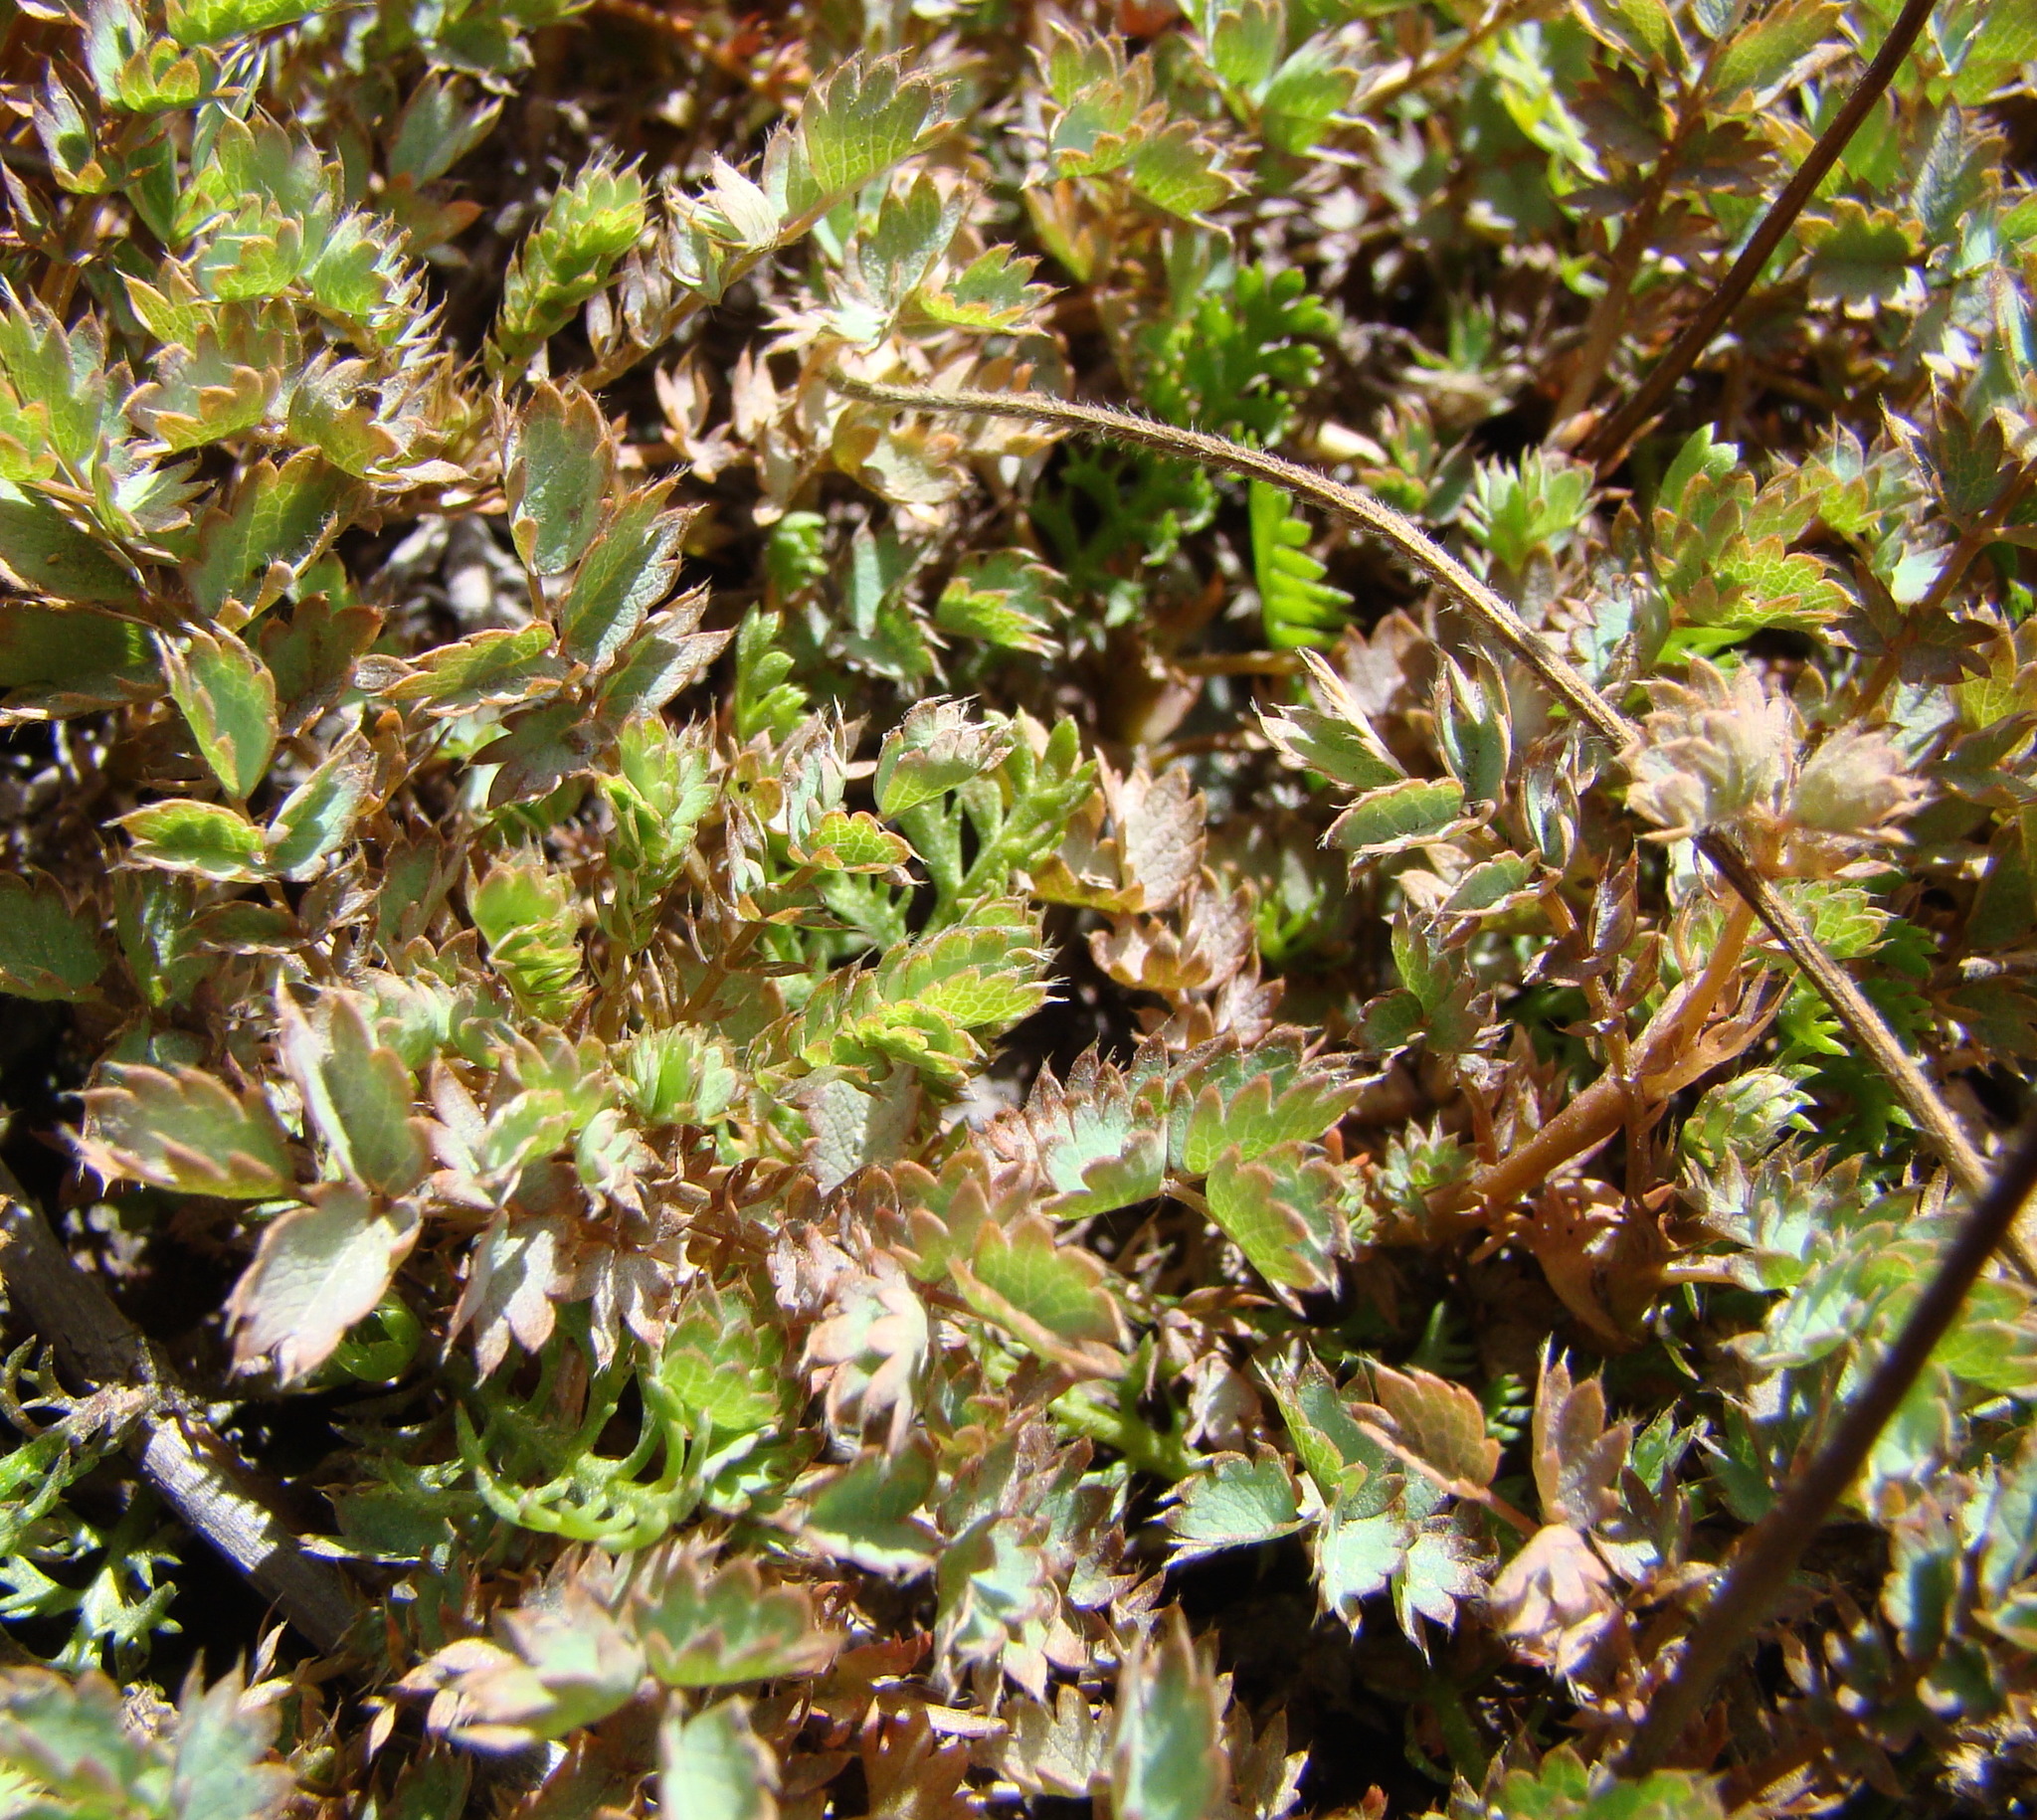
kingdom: Plantae
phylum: Tracheophyta
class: Magnoliopsida
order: Rosales
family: Rosaceae
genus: Acaena
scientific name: Acaena caesiiglauca
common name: Glaucous pirri-pirri-bur
